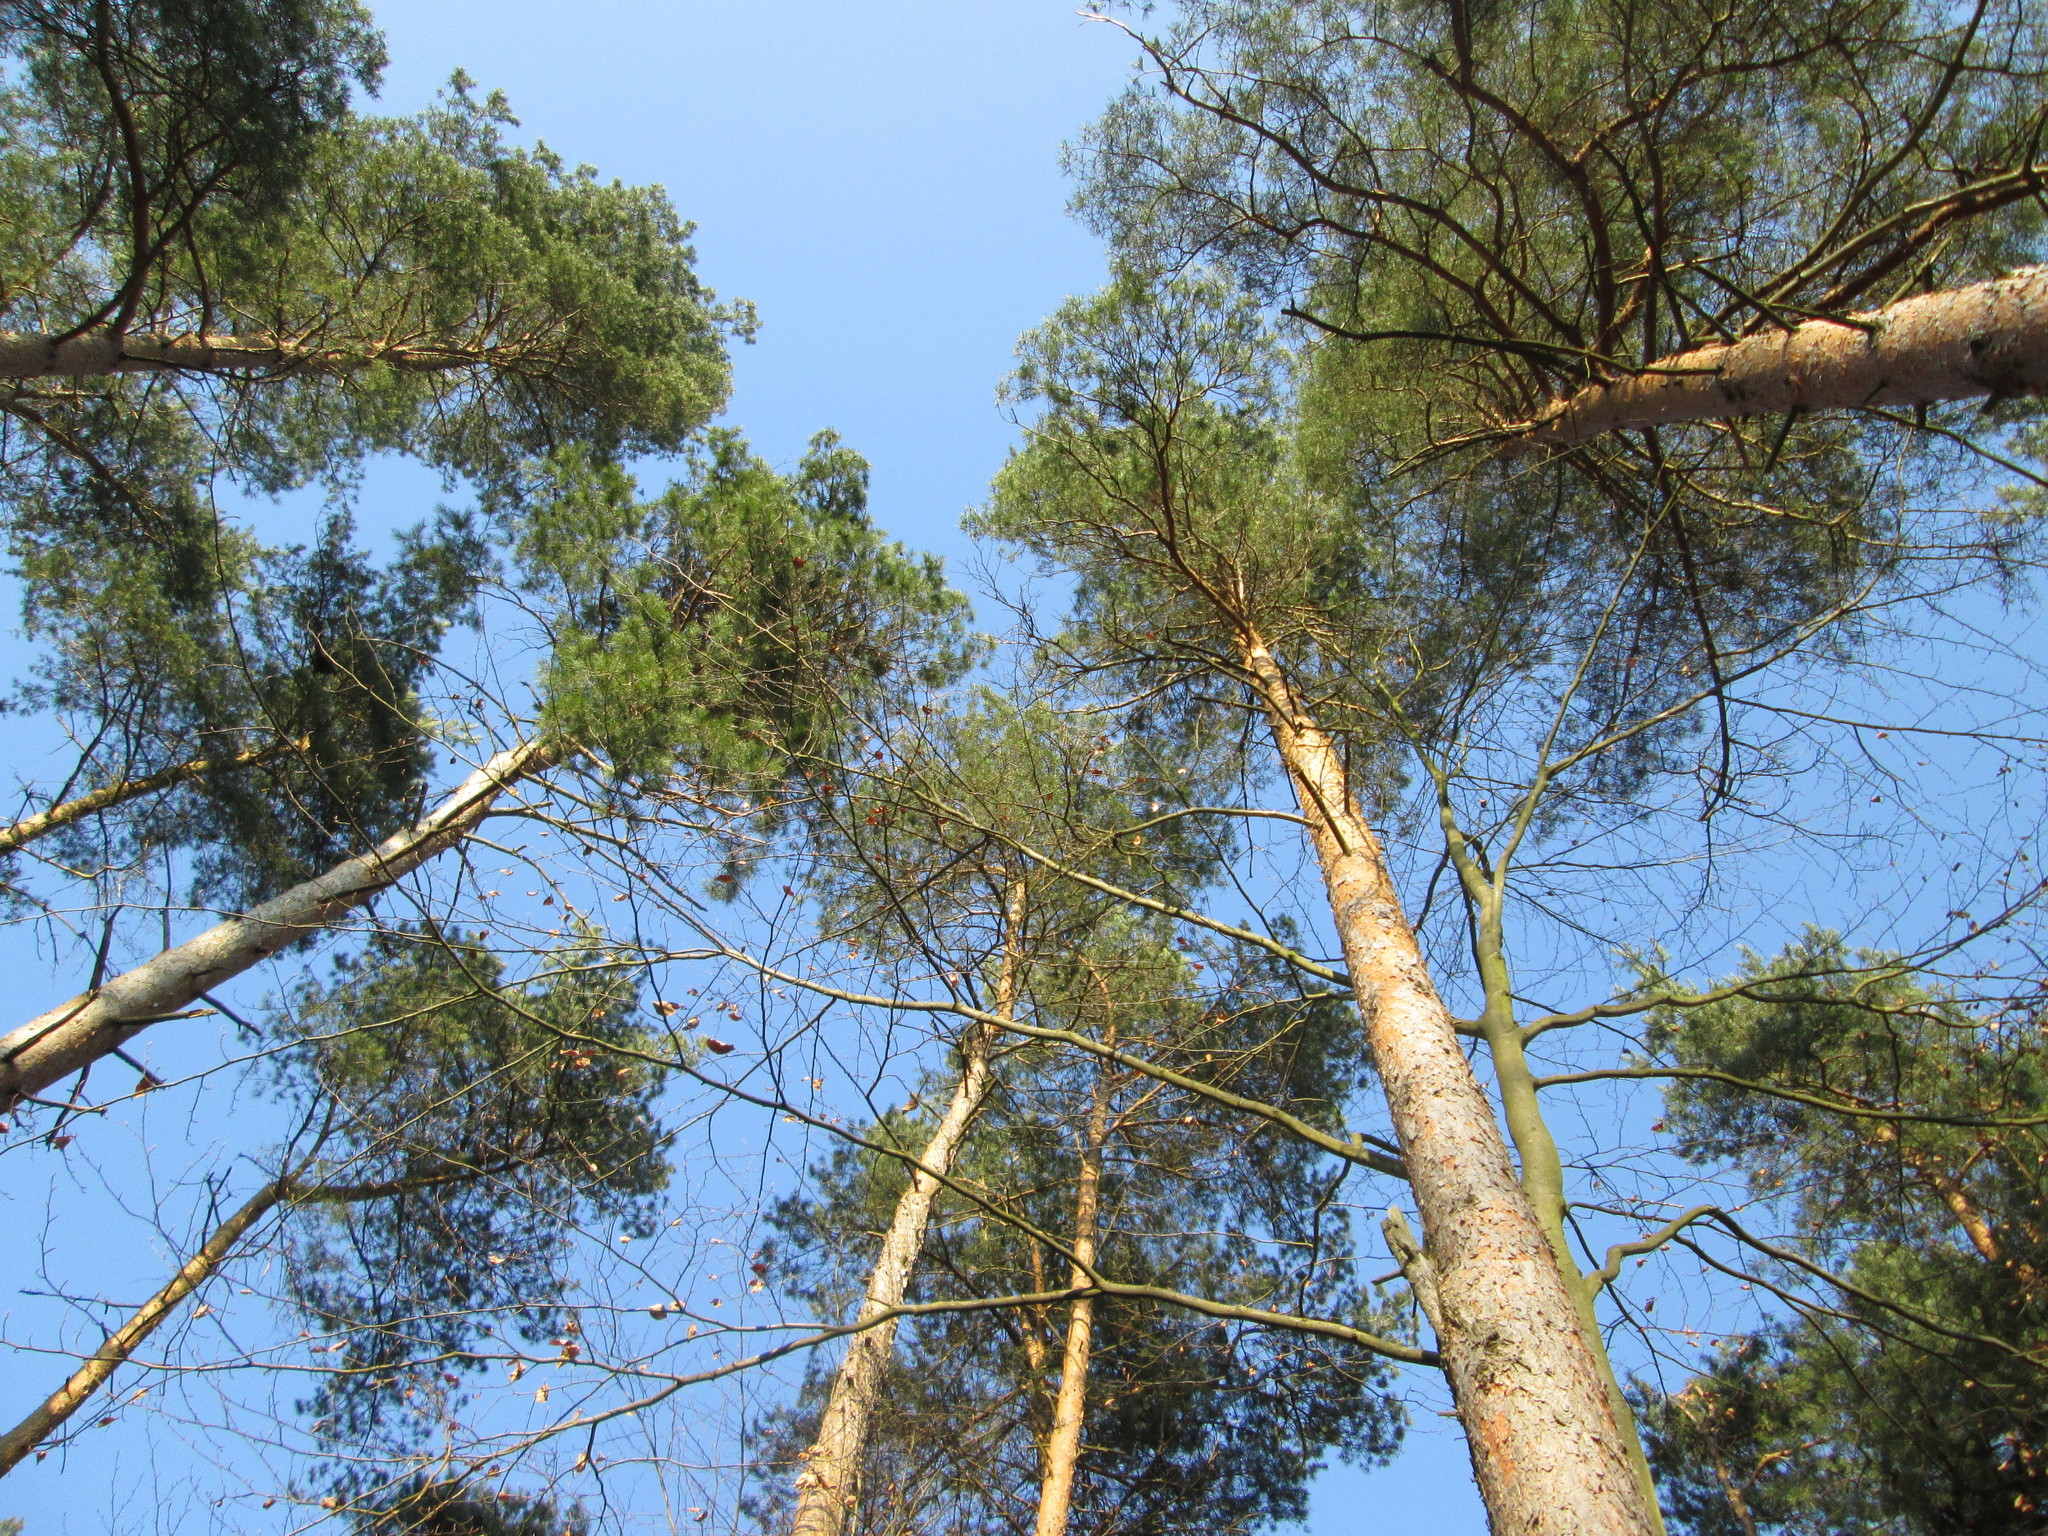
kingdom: Plantae
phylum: Tracheophyta
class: Pinopsida
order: Pinales
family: Pinaceae
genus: Pinus
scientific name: Pinus sylvestris
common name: Scots pine
